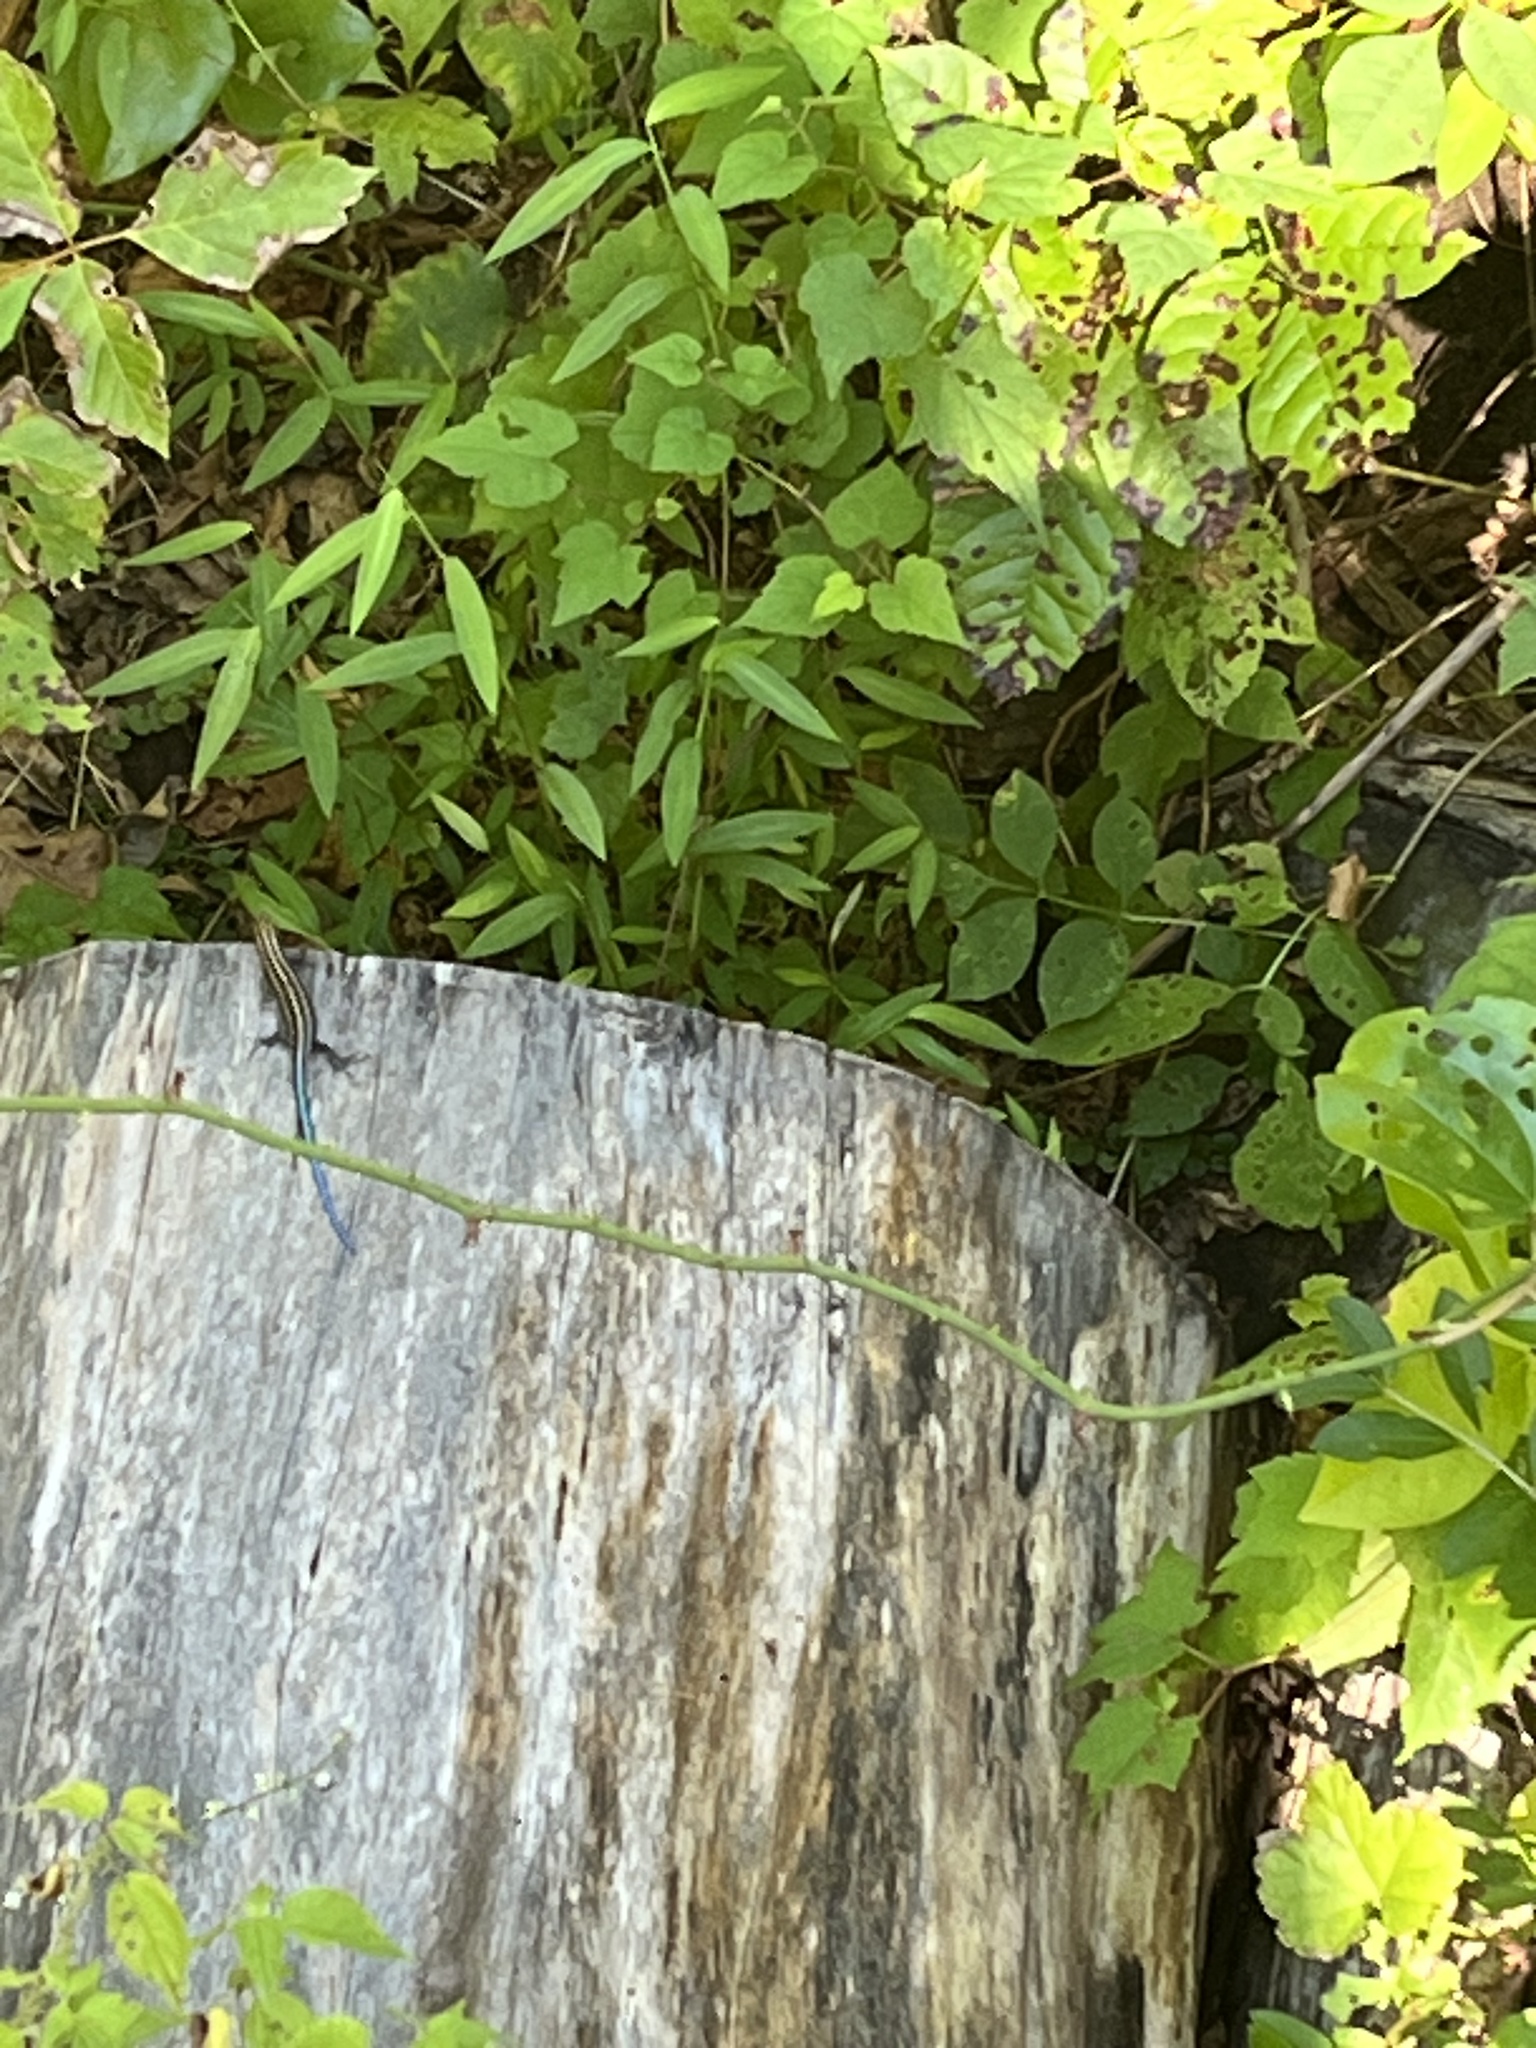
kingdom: Animalia
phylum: Chordata
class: Squamata
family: Scincidae
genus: Plestiodon
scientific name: Plestiodon fasciatus
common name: Five-lined skink
